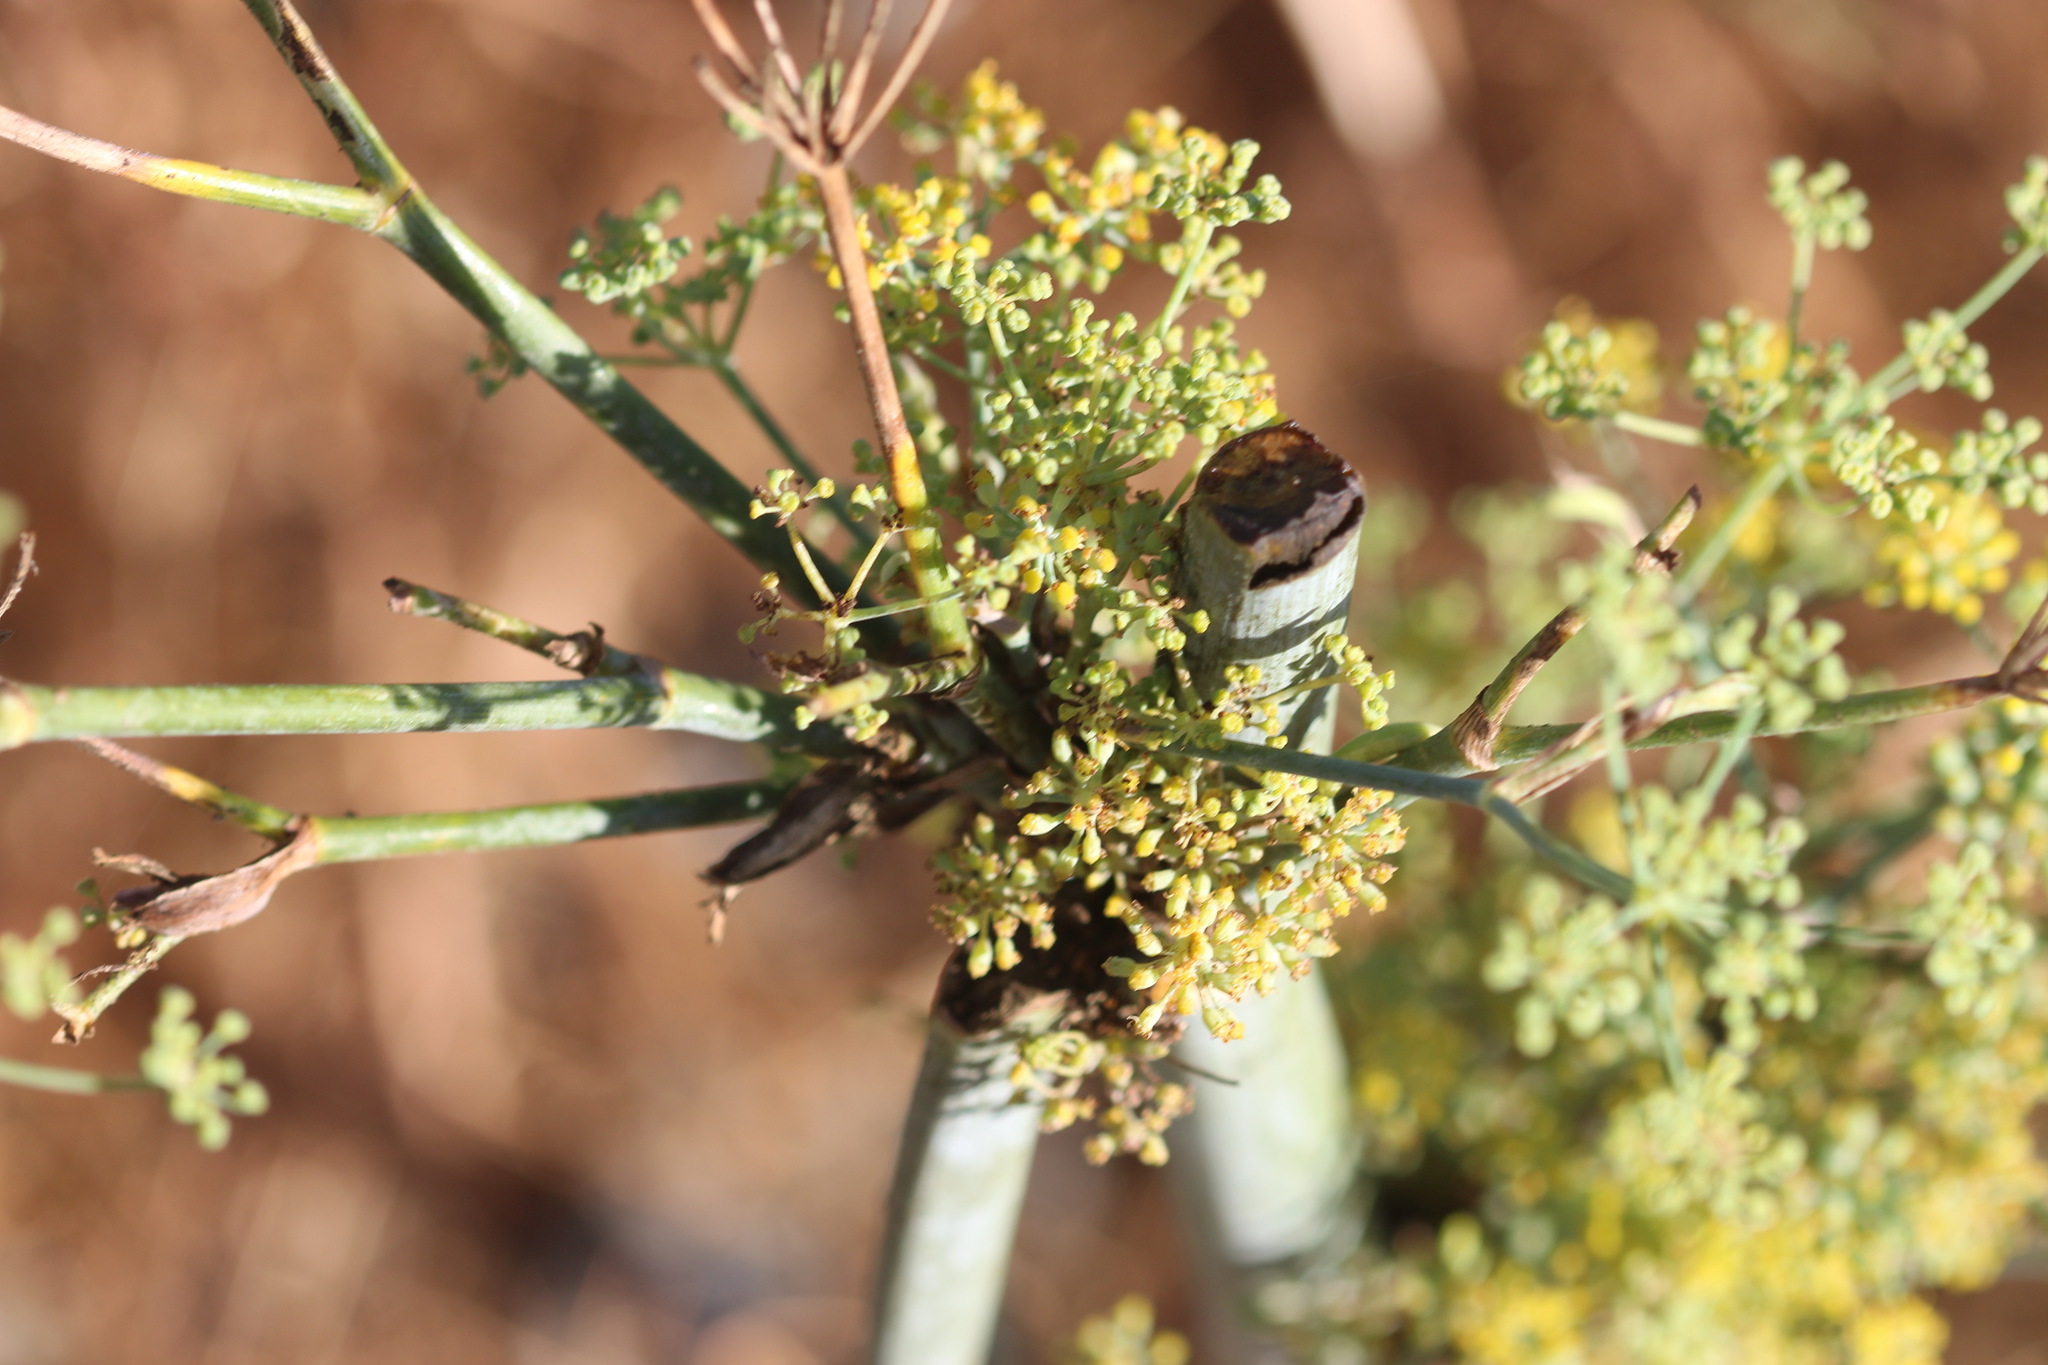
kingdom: Plantae
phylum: Tracheophyta
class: Magnoliopsida
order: Apiales
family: Apiaceae
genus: Foeniculum
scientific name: Foeniculum vulgare
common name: Fennel
